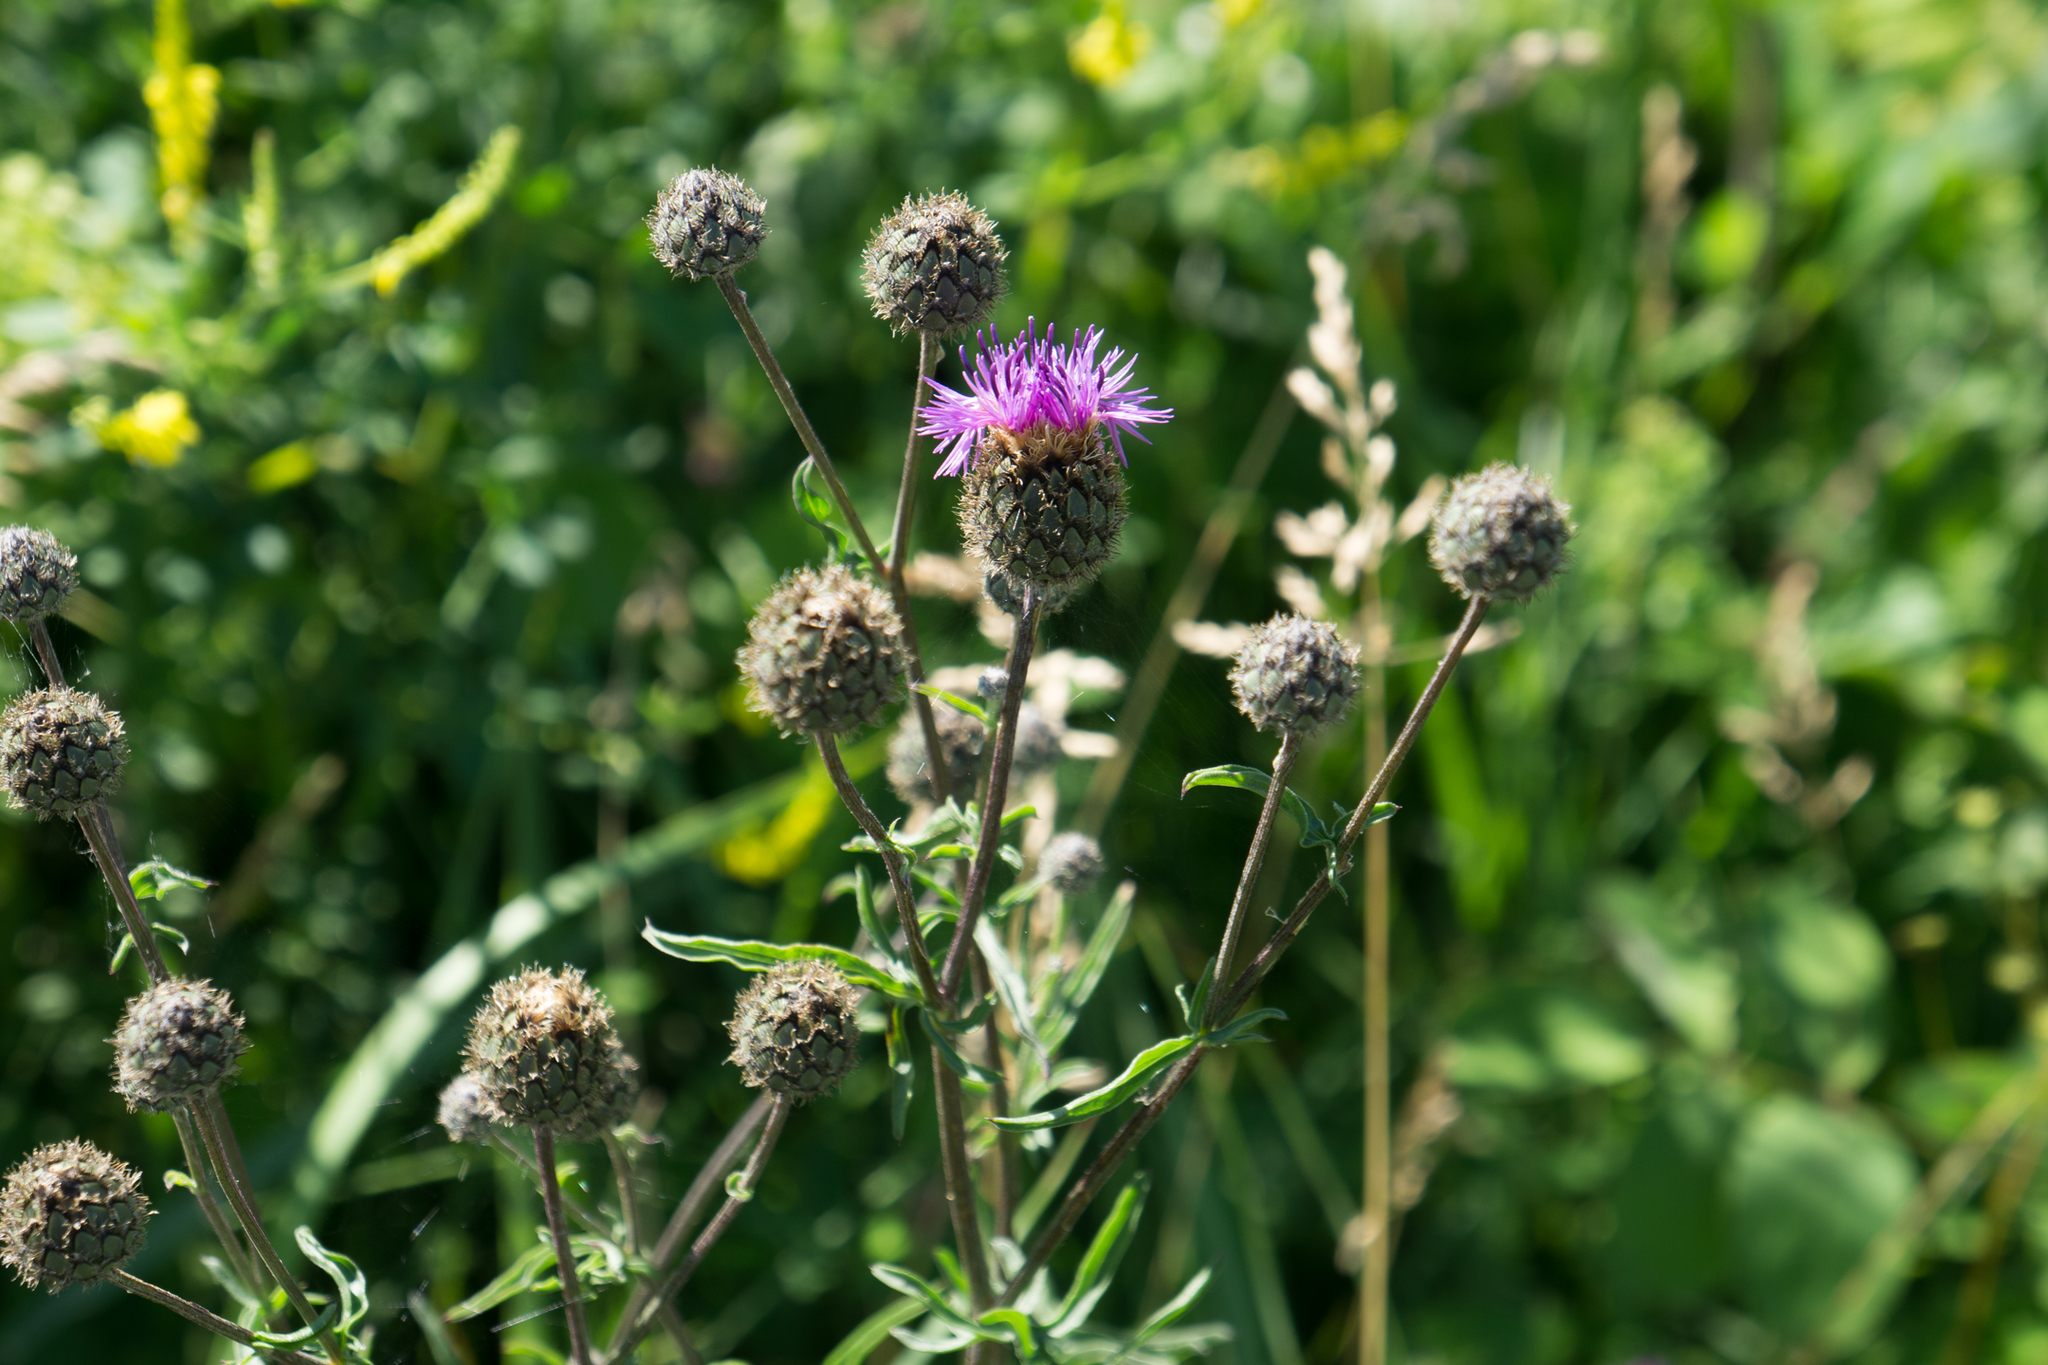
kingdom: Plantae
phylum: Tracheophyta
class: Magnoliopsida
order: Asterales
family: Asteraceae
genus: Centaurea
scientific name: Centaurea scabiosa
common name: Greater knapweed
